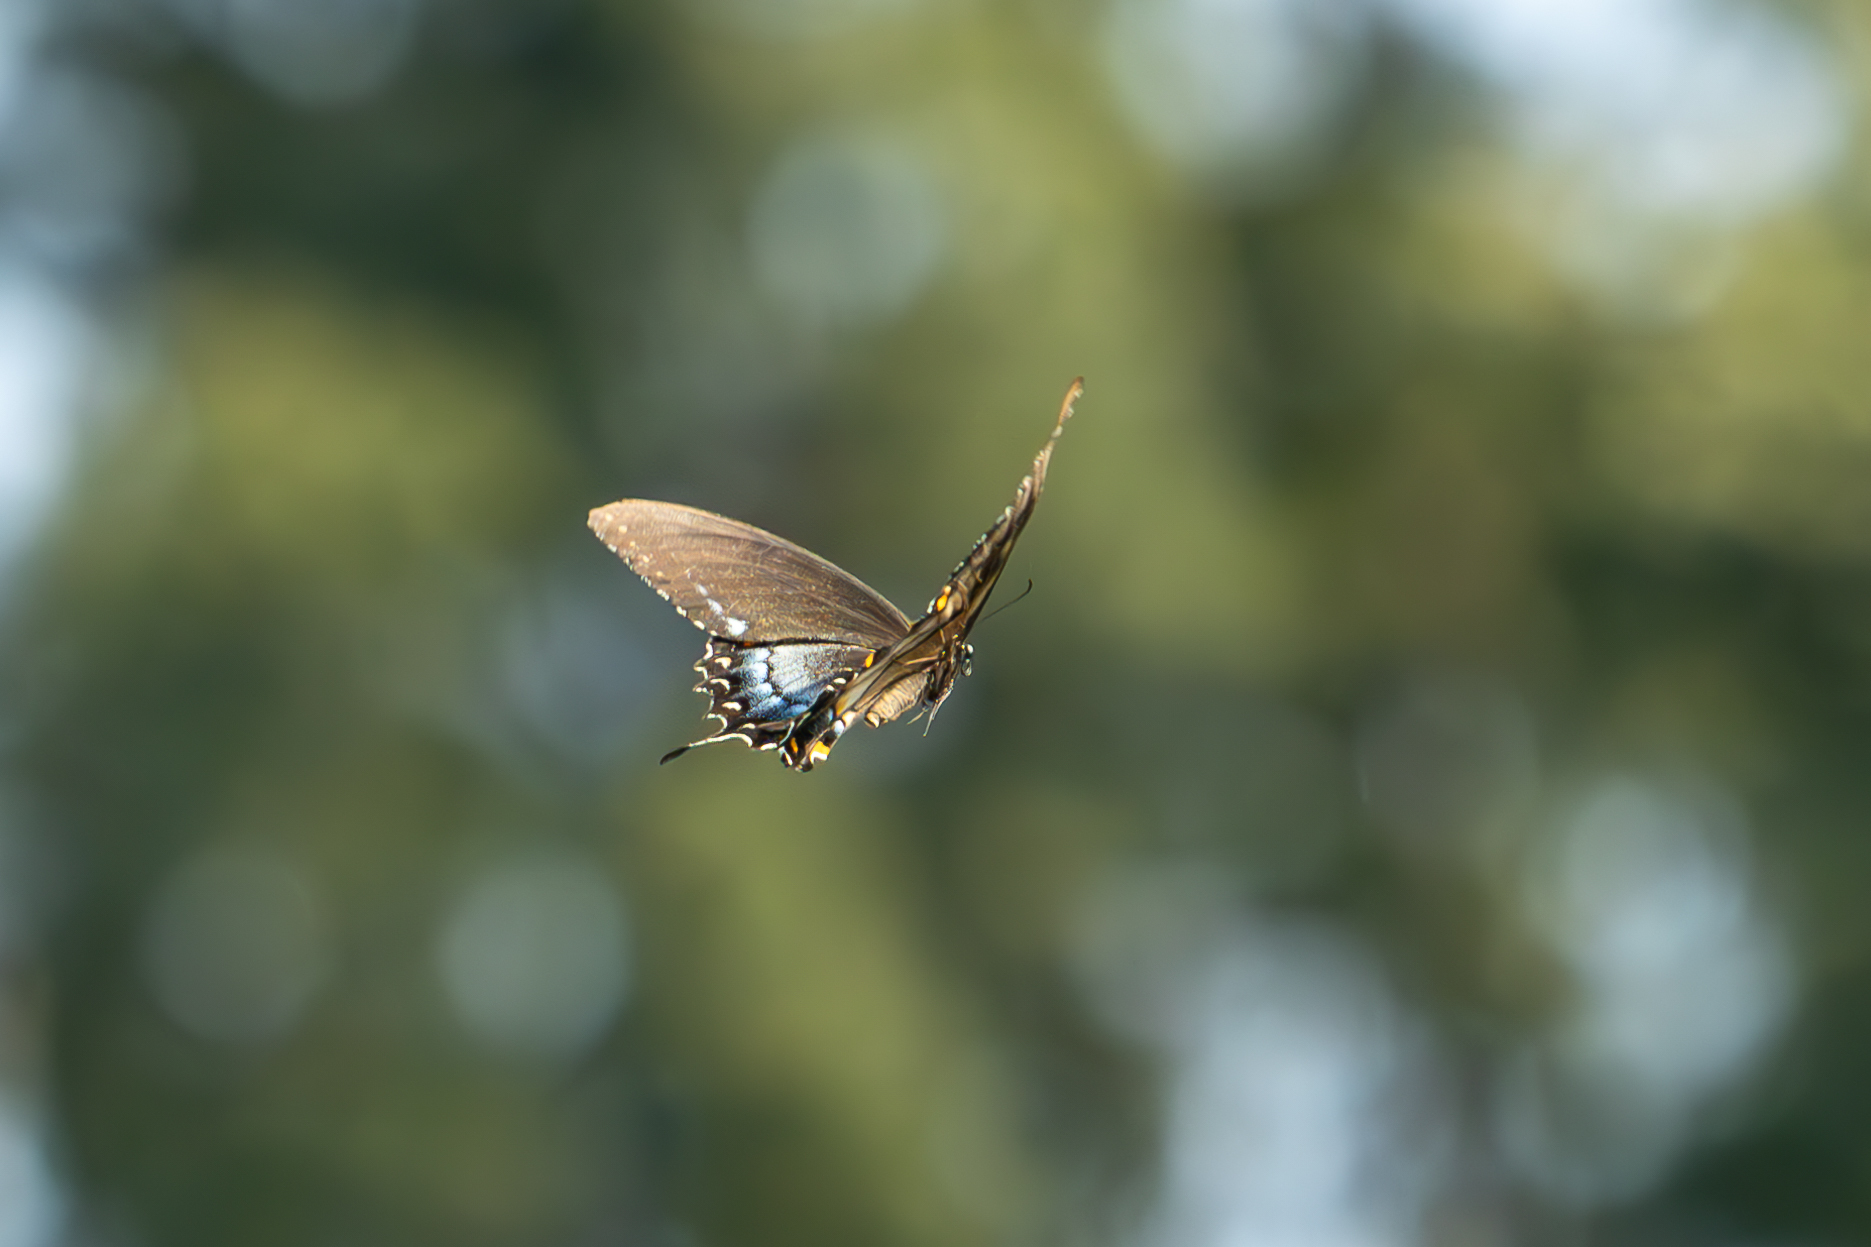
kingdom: Animalia
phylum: Arthropoda
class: Insecta
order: Lepidoptera
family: Papilionidae
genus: Papilio
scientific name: Papilio glaucus
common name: Tiger swallowtail
